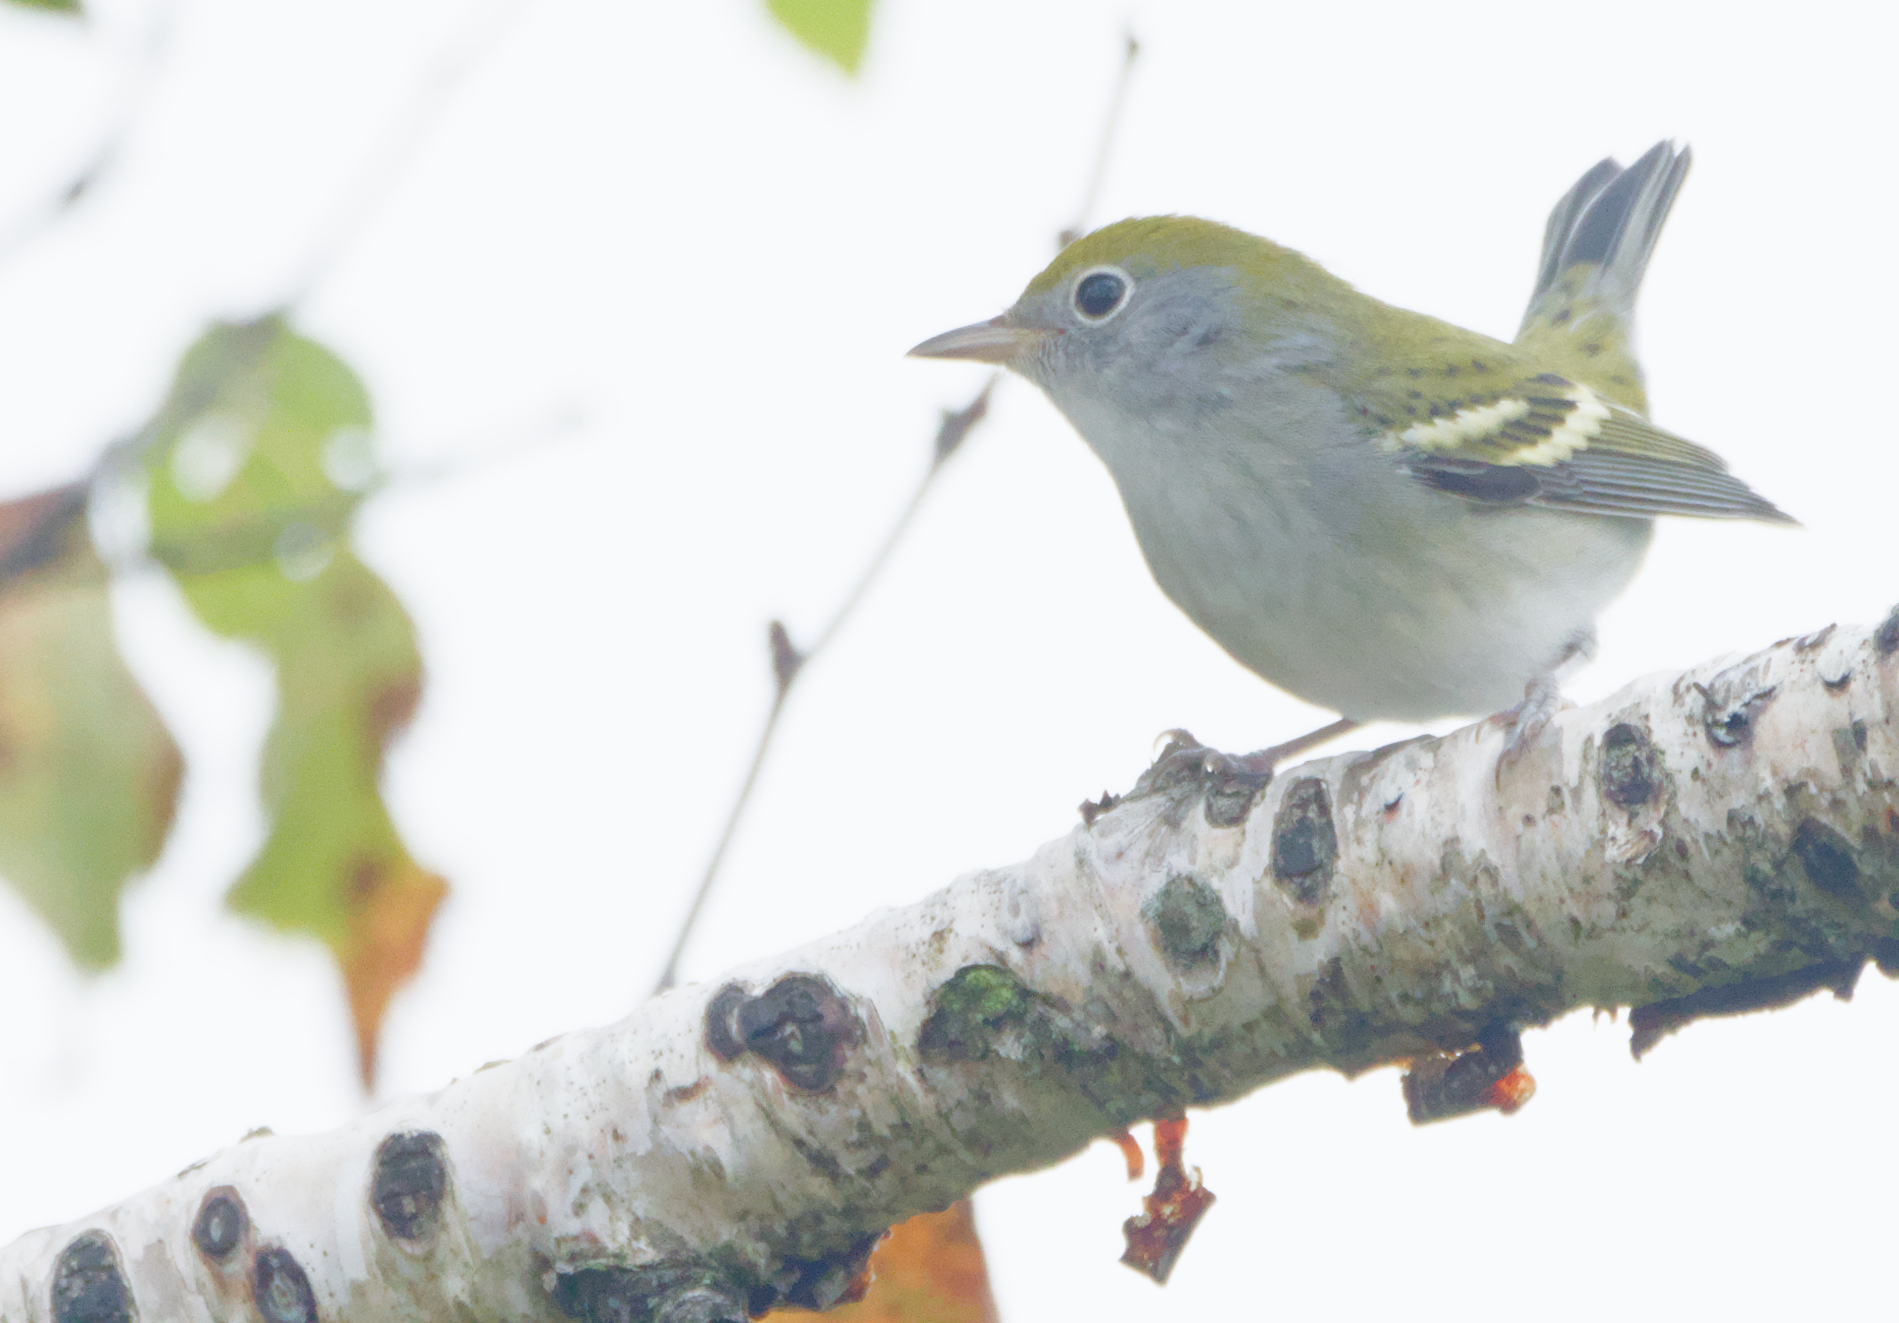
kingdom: Animalia
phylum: Chordata
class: Aves
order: Passeriformes
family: Parulidae
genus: Setophaga
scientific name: Setophaga pensylvanica
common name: Chestnut-sided warbler
